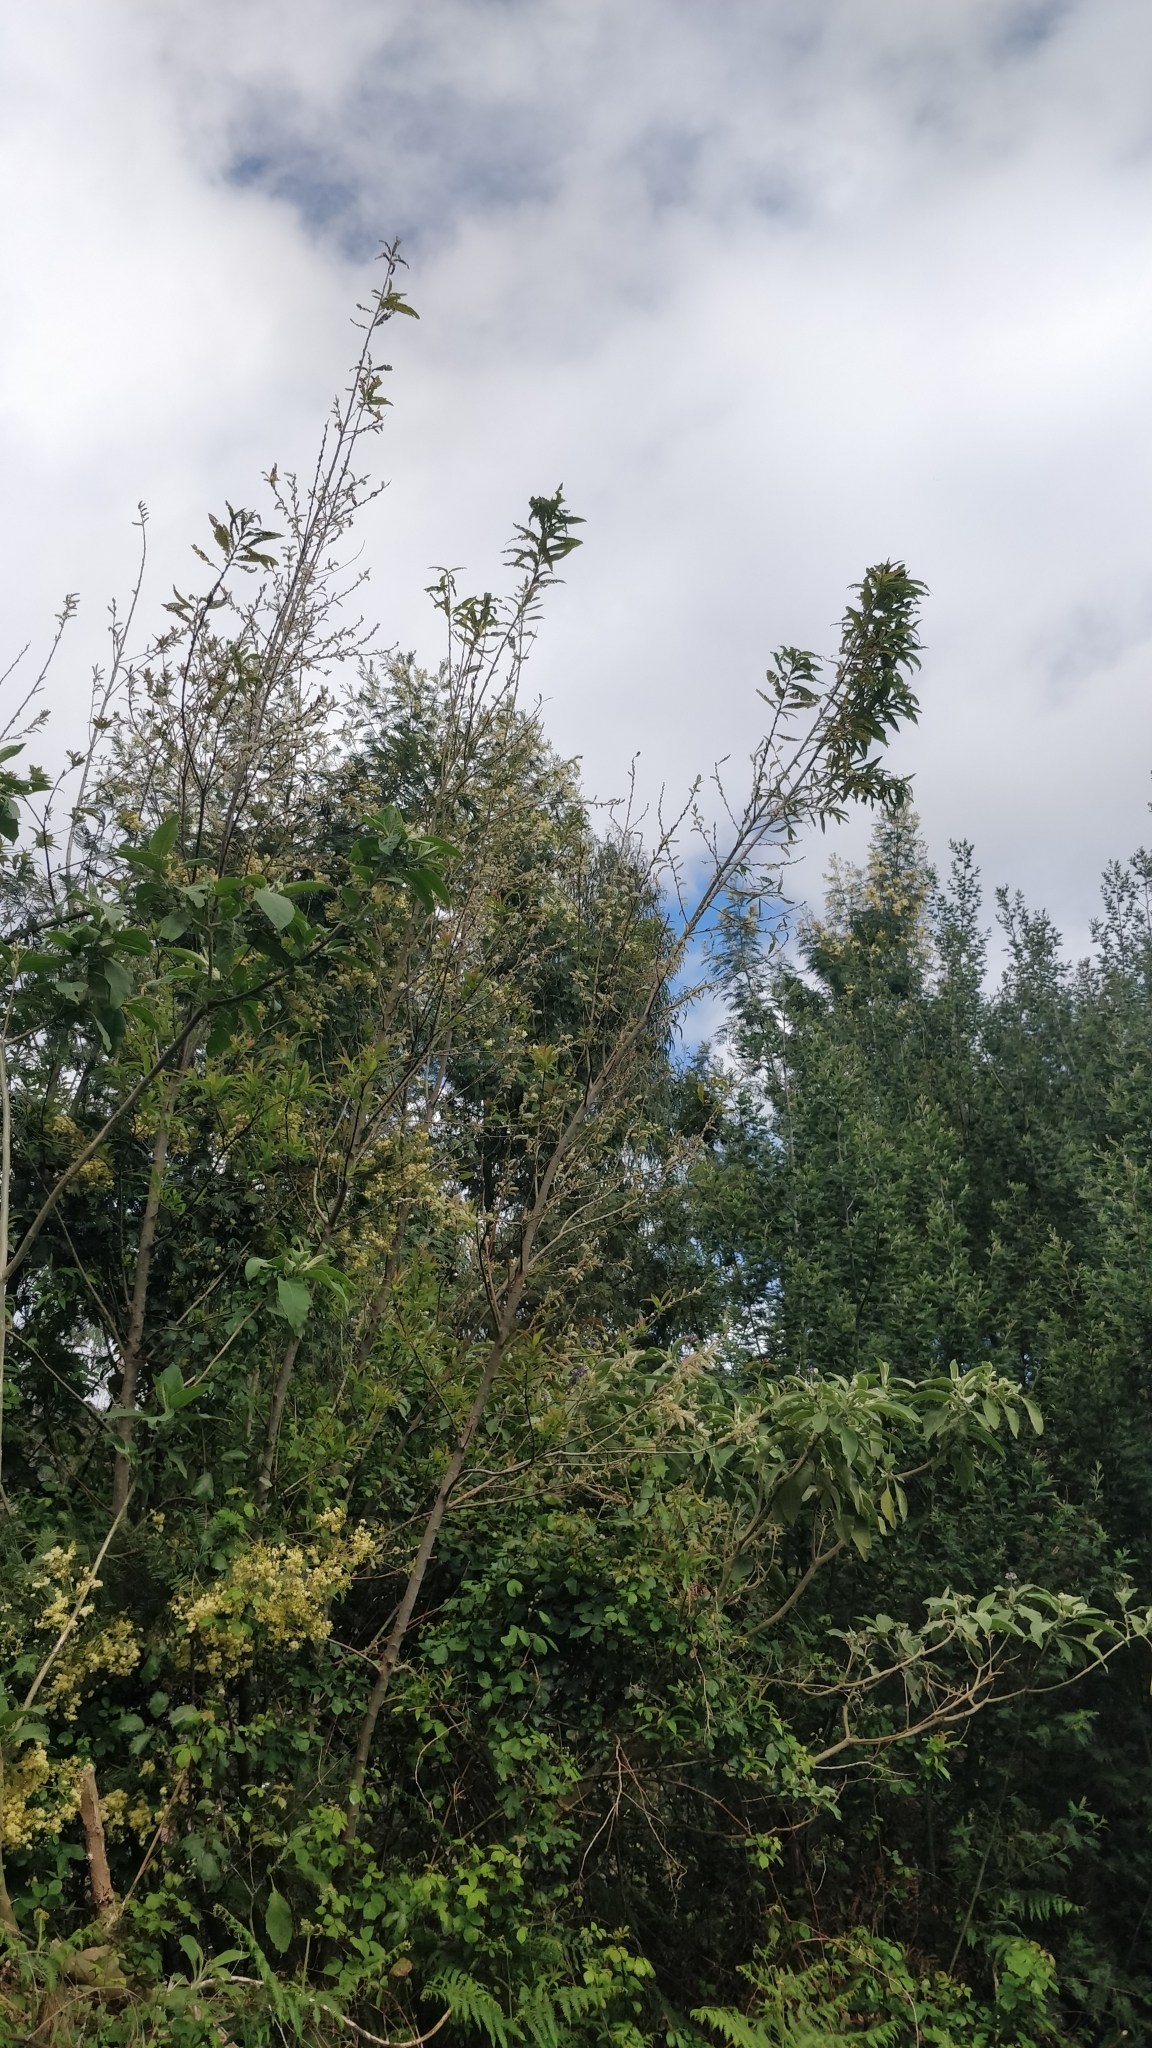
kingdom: Plantae
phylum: Tracheophyta
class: Magnoliopsida
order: Malpighiales
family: Salicaceae
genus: Salix
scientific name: Salix canariensis
